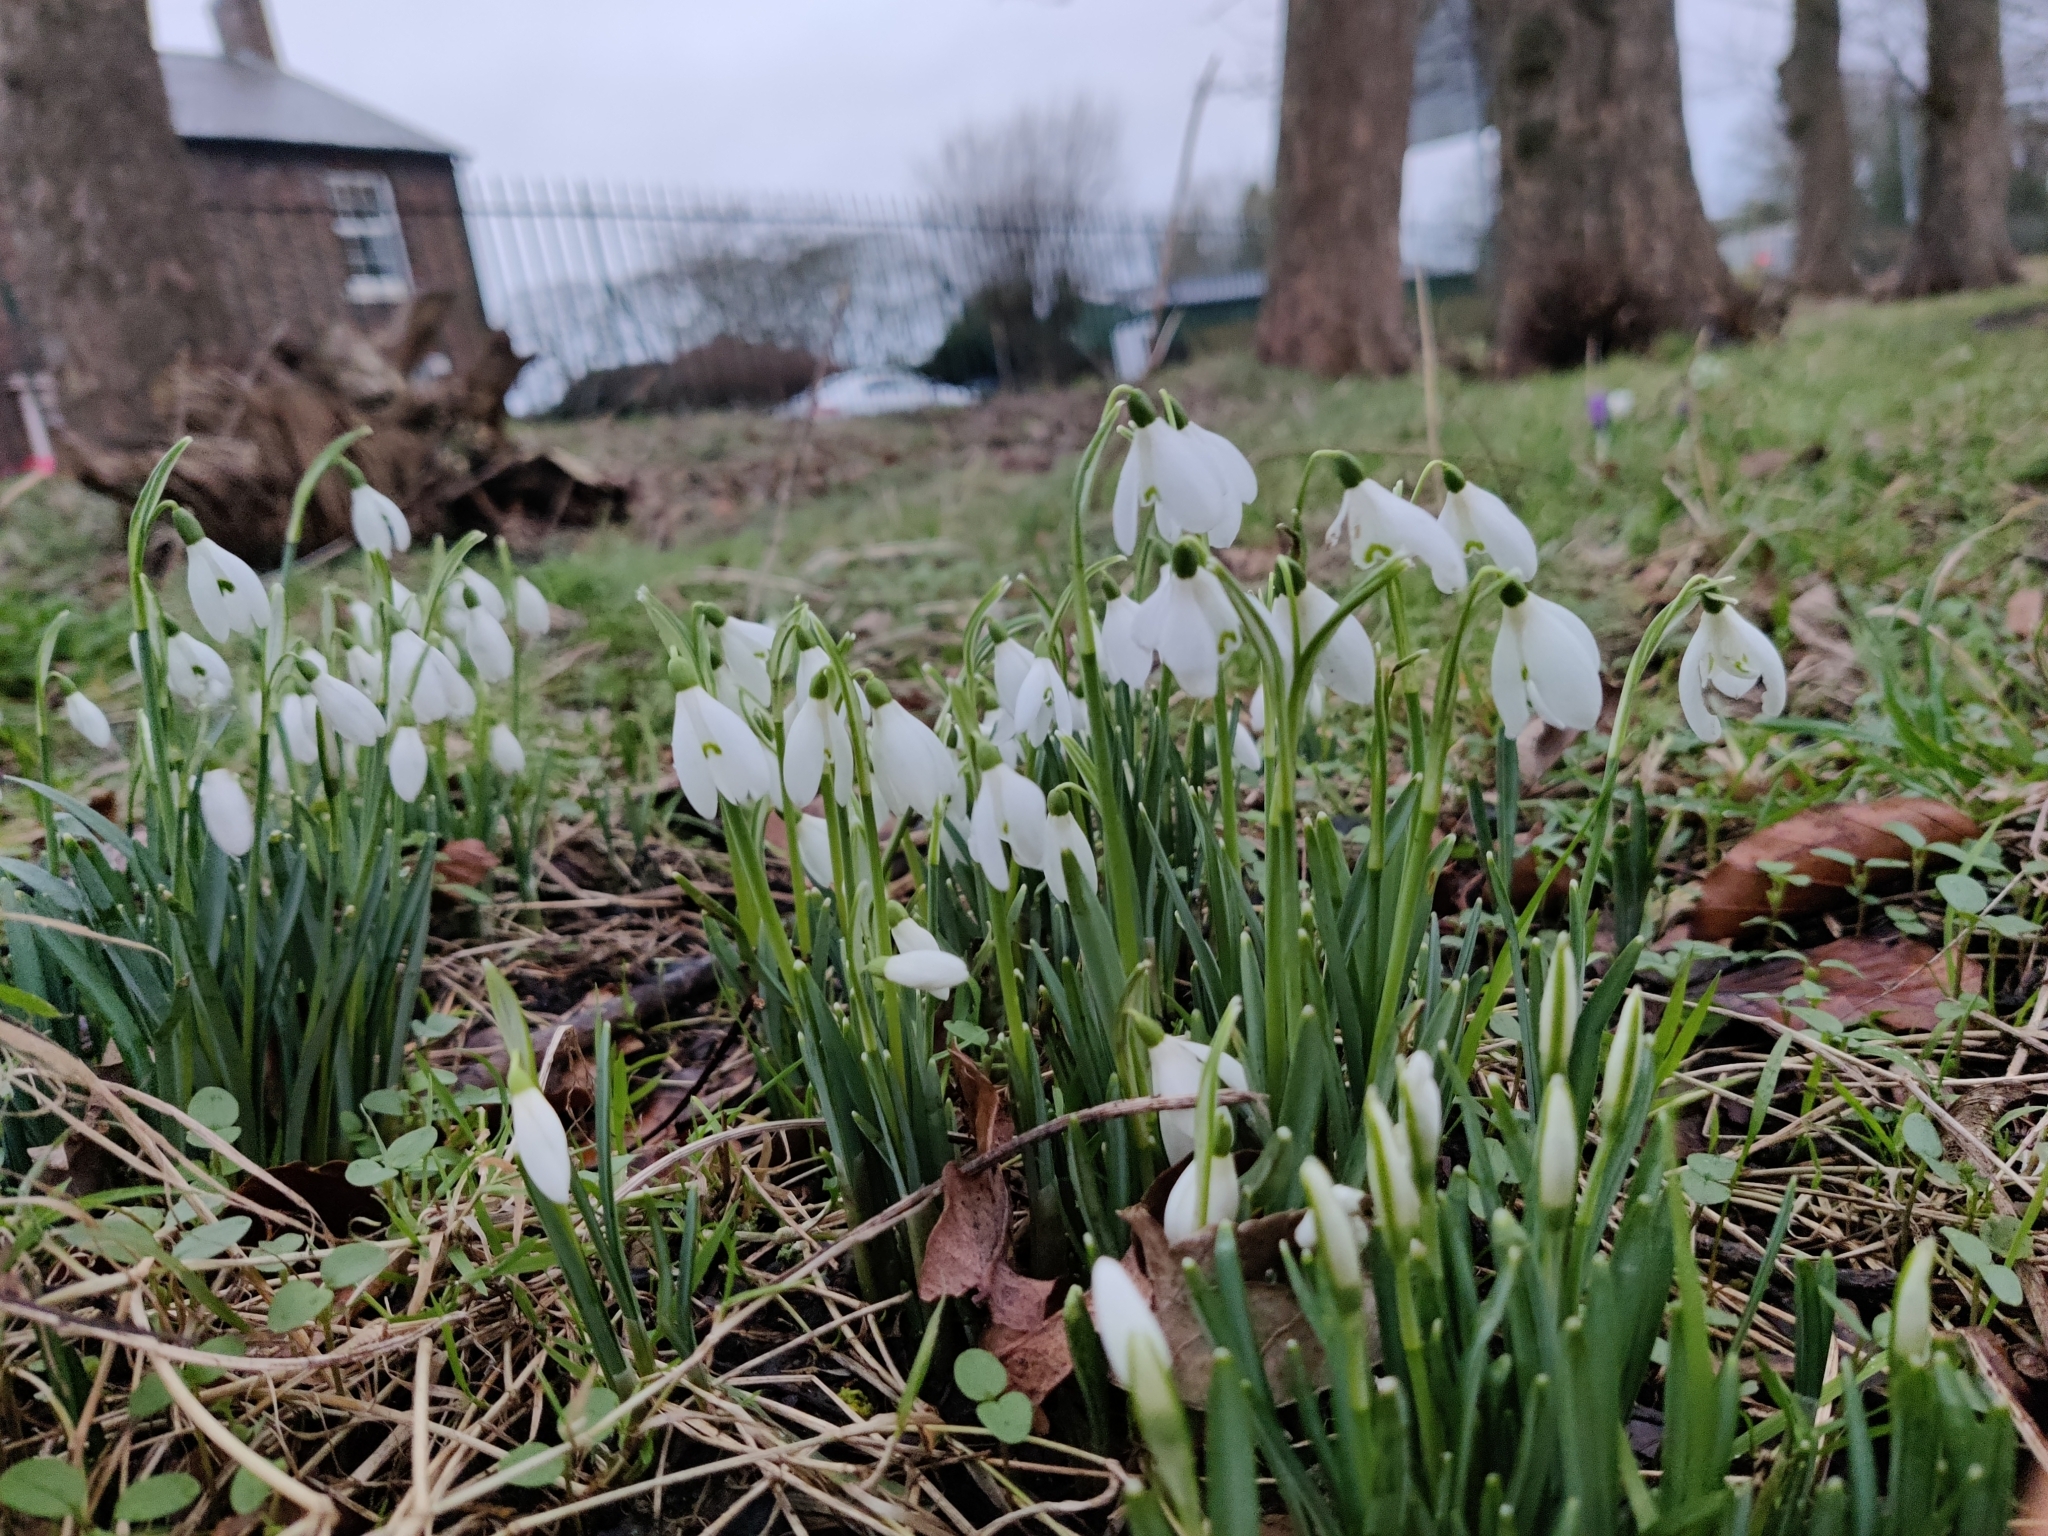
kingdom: Plantae
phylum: Tracheophyta
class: Liliopsida
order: Asparagales
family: Amaryllidaceae
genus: Galanthus
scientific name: Galanthus nivalis
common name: Snowdrop
